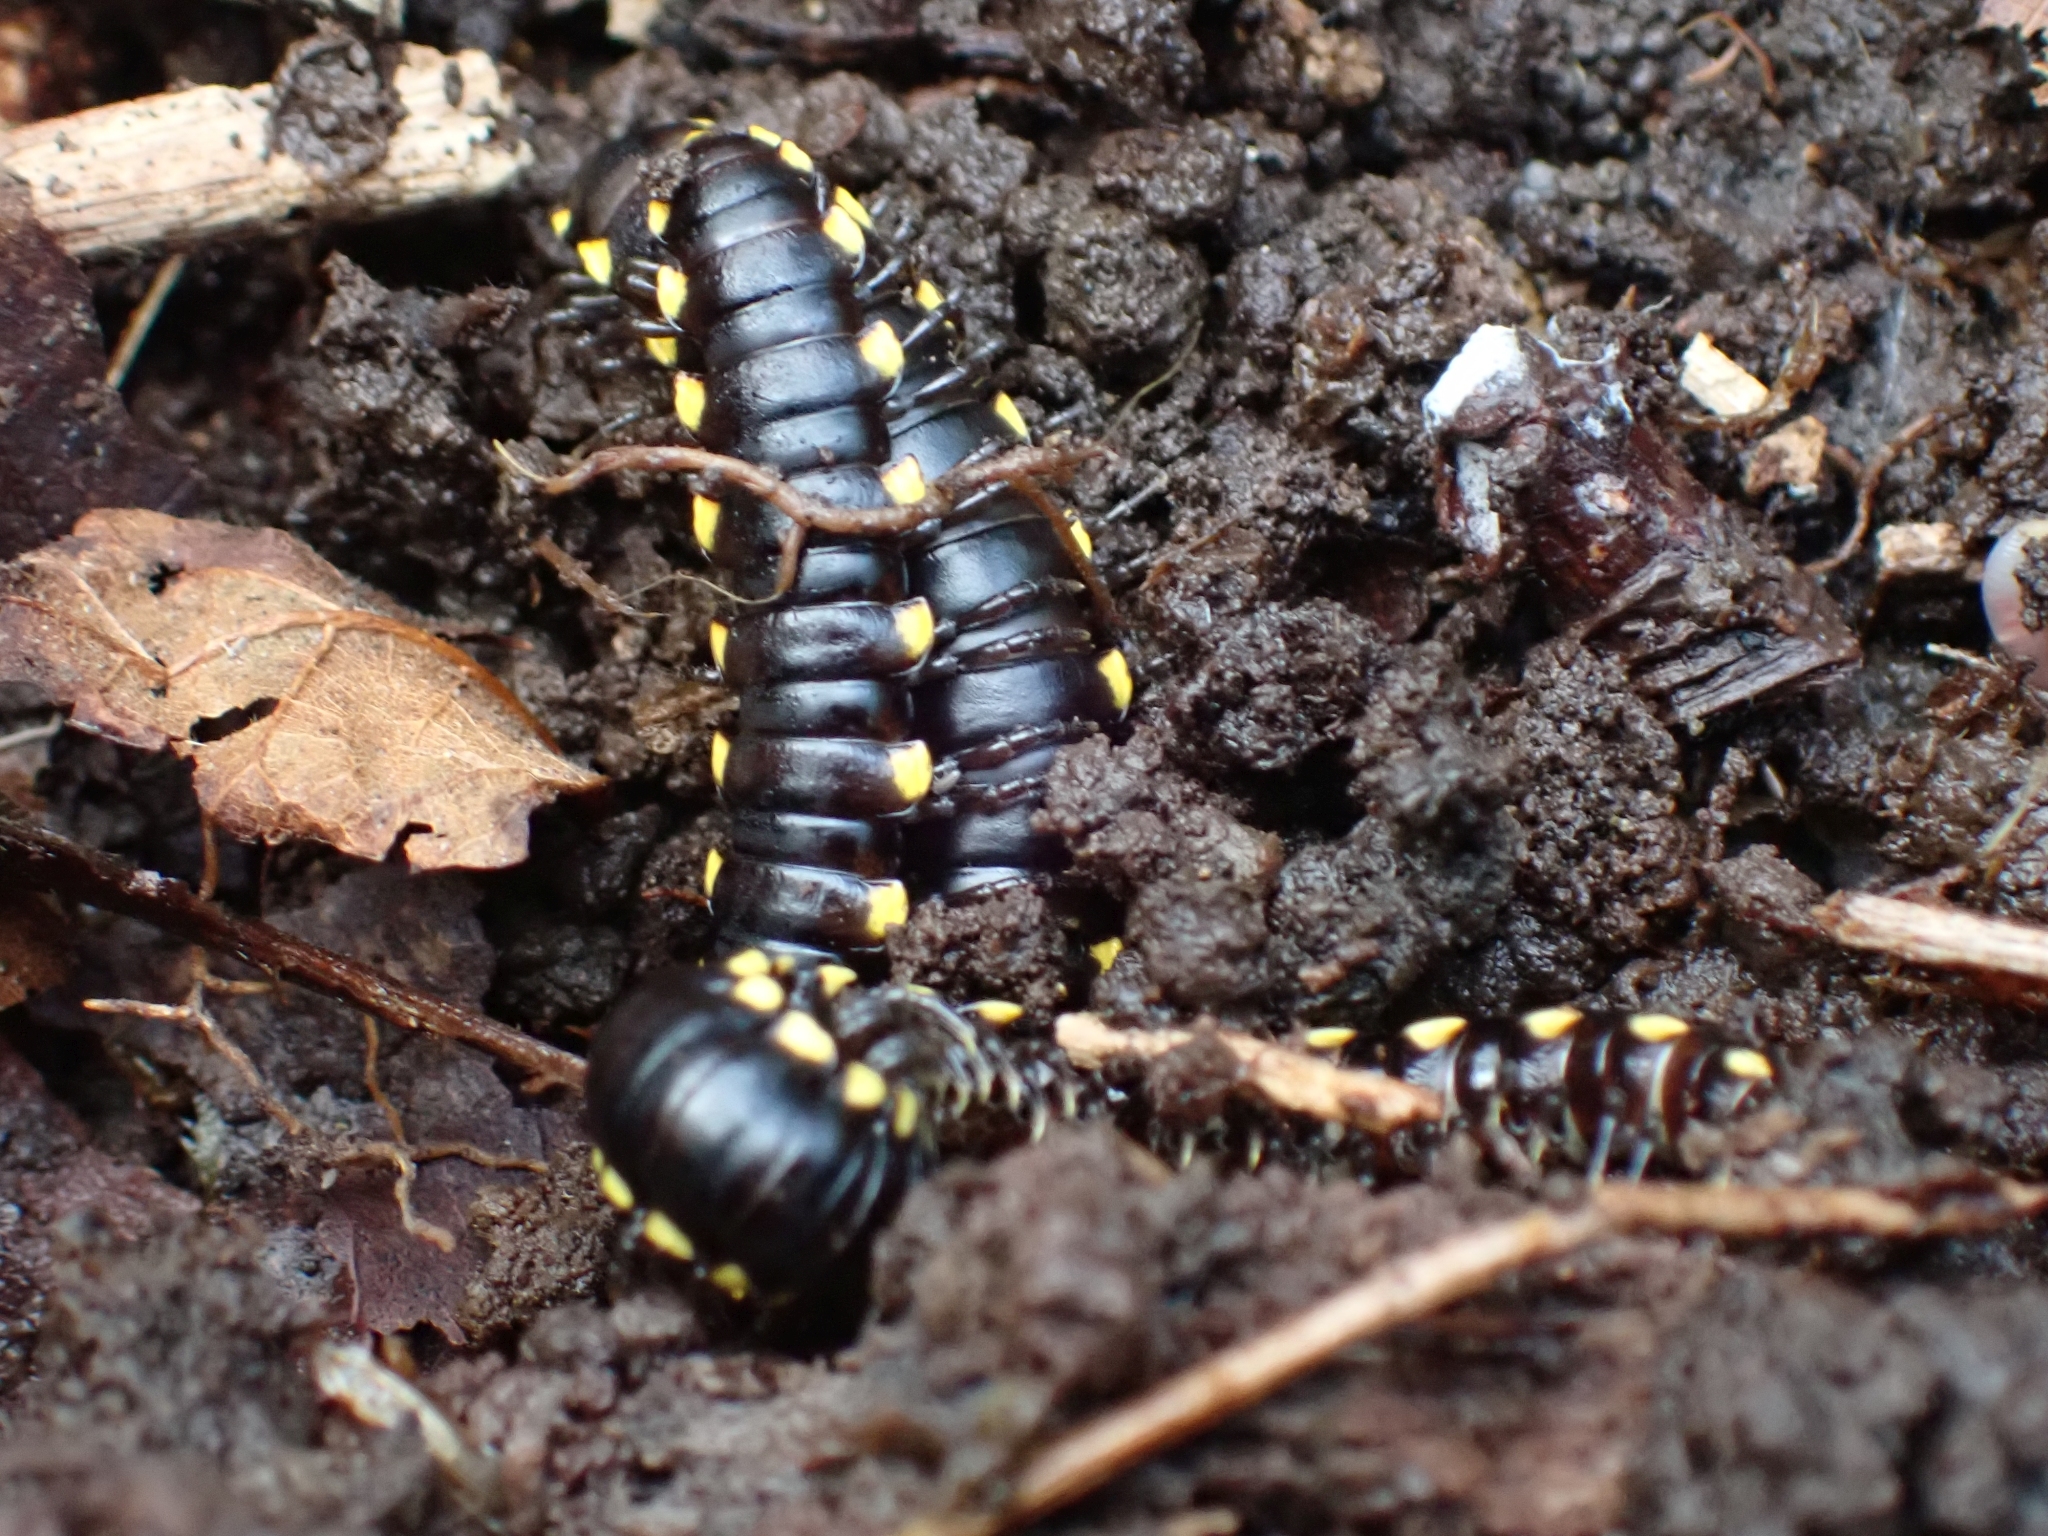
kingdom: Animalia
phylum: Arthropoda
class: Diplopoda
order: Polydesmida
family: Xystodesmidae
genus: Harpaphe
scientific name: Harpaphe haydeniana
